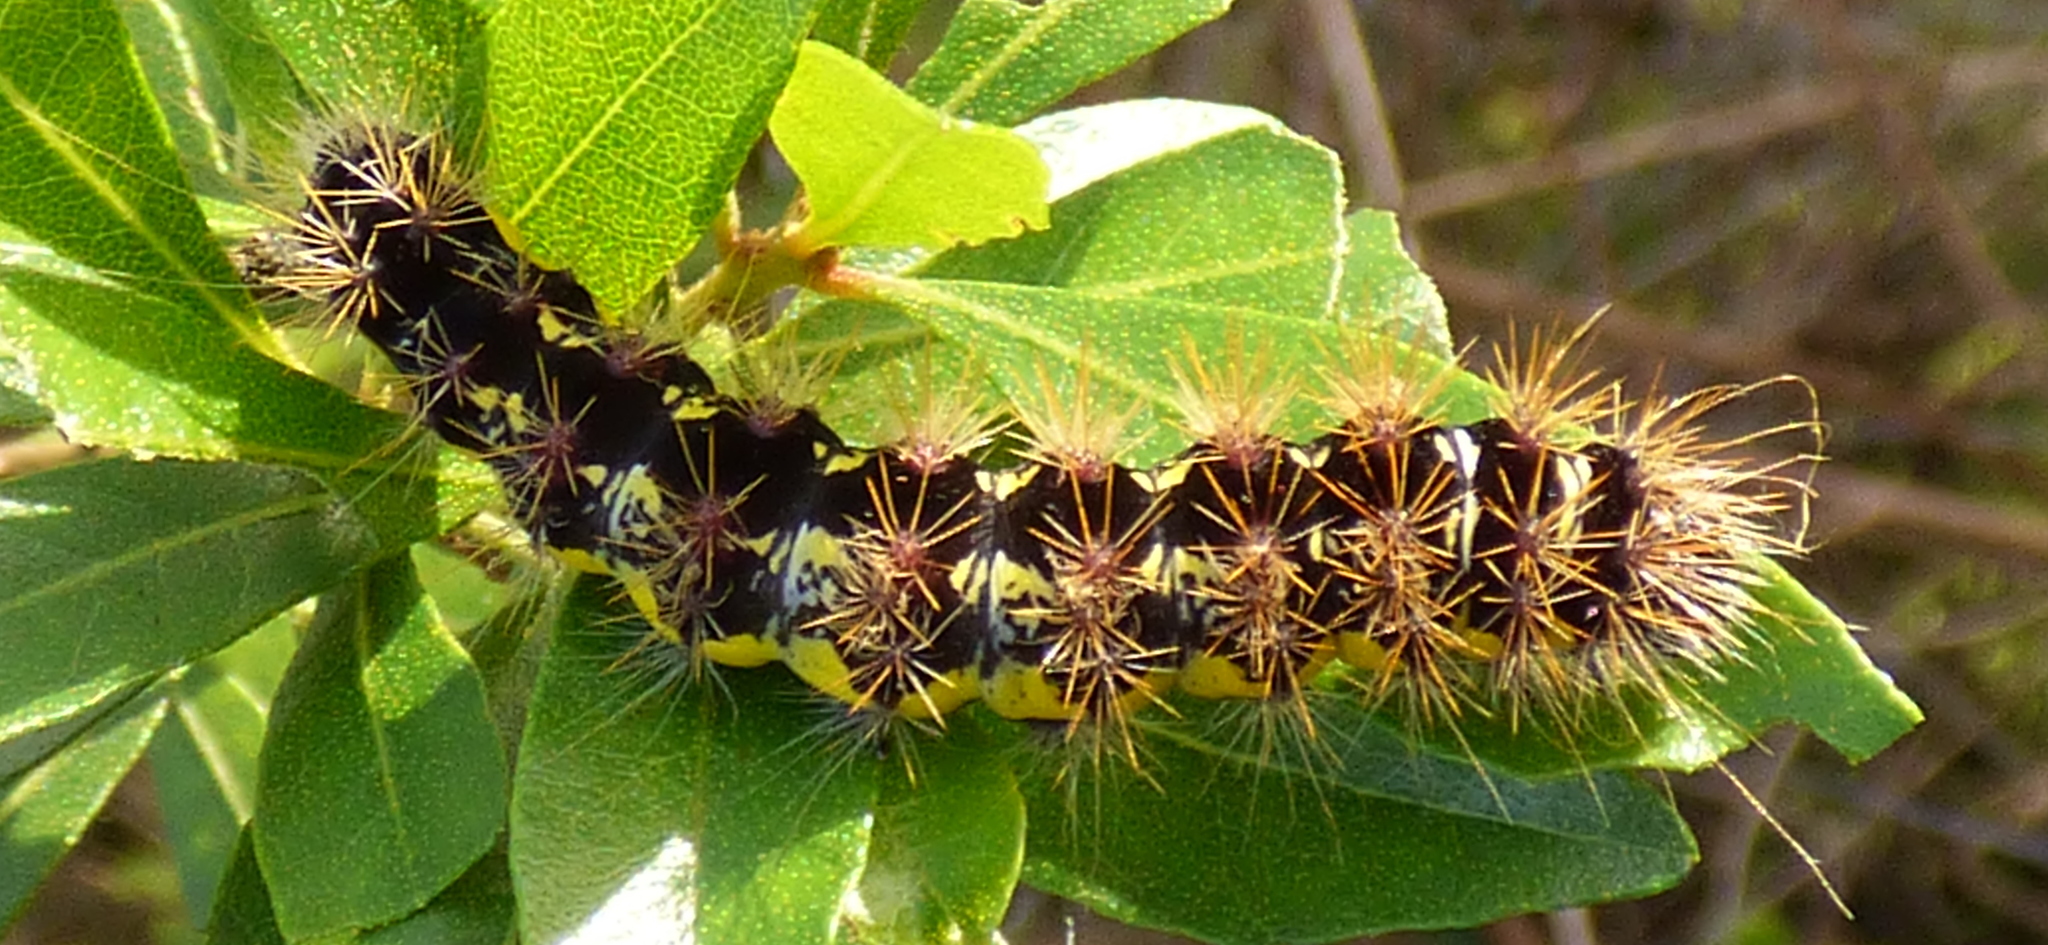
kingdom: Animalia
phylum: Arthropoda
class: Insecta
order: Lepidoptera
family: Noctuidae
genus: Acronicta
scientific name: Acronicta oblinita
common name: Smeared dagger
